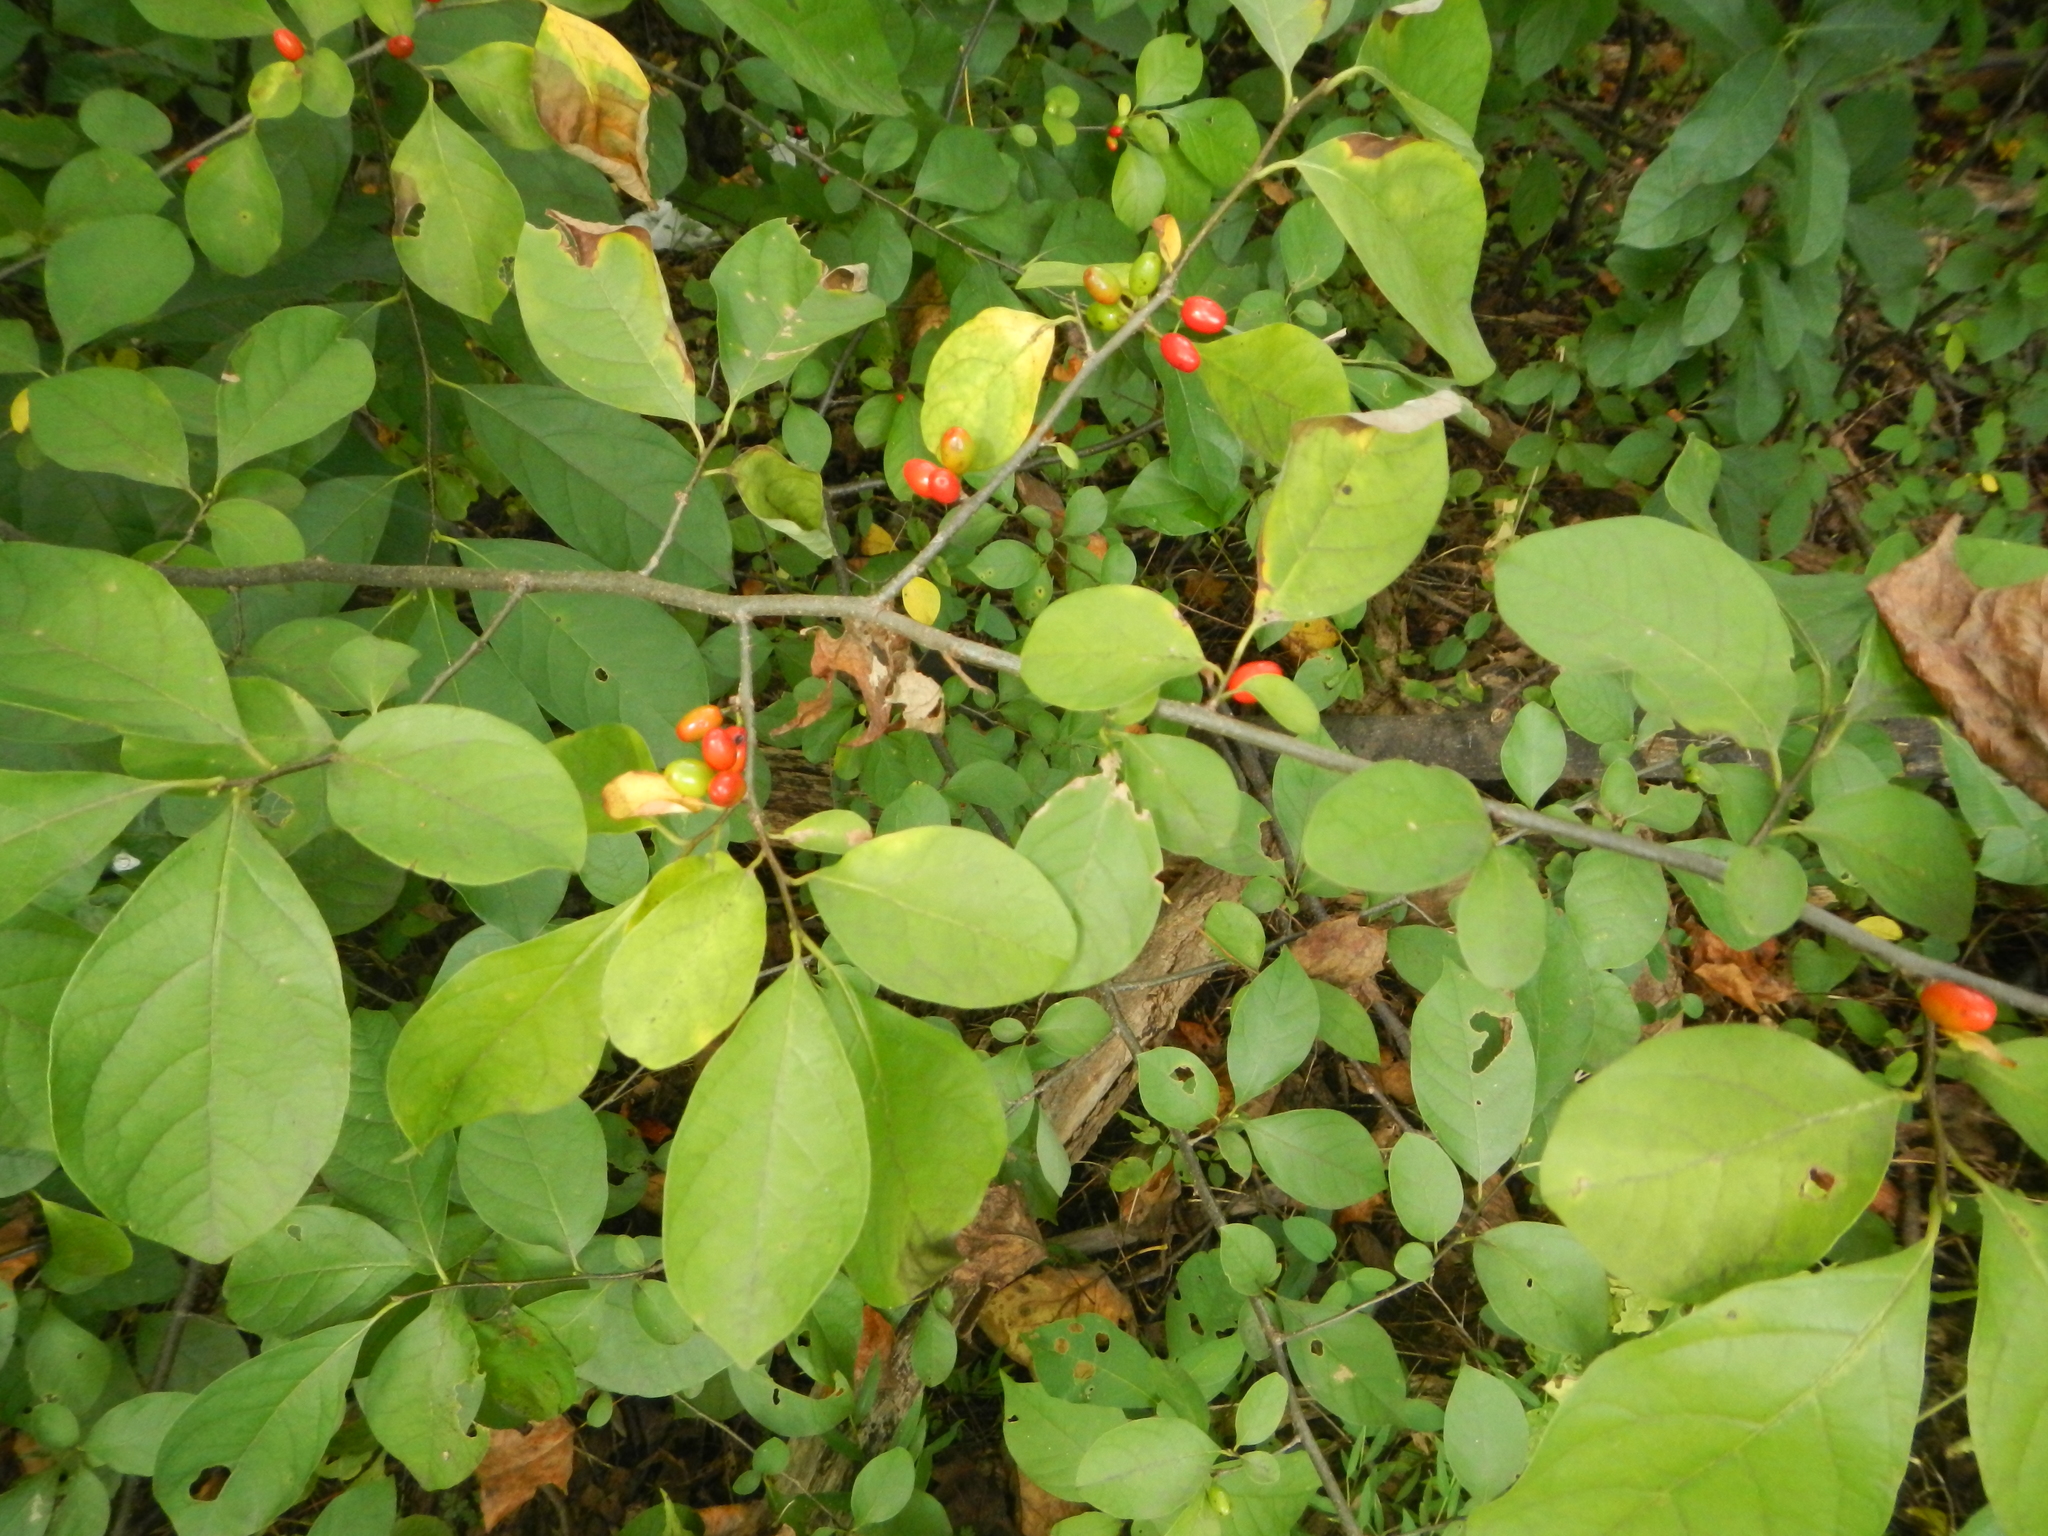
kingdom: Plantae
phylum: Tracheophyta
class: Magnoliopsida
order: Laurales
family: Lauraceae
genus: Lindera
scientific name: Lindera benzoin
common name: Spicebush
